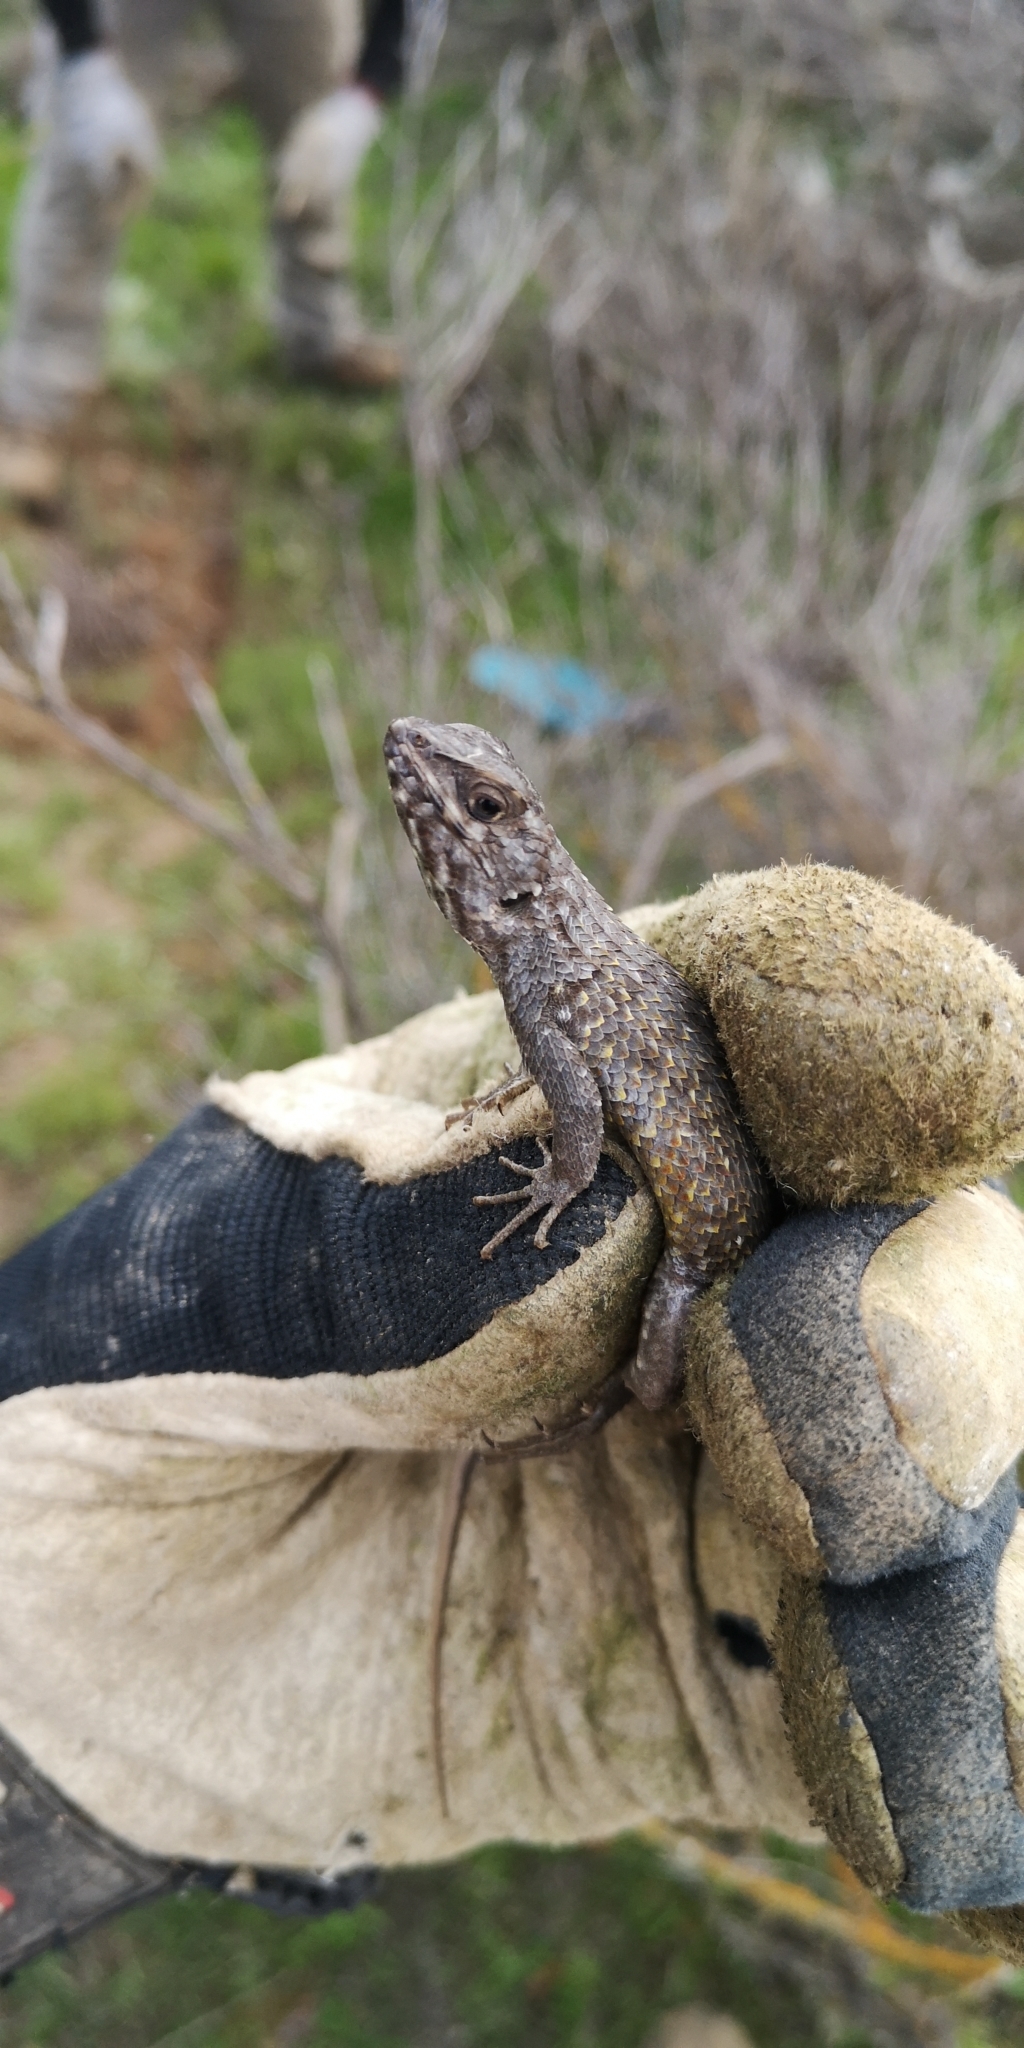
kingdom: Animalia
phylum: Chordata
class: Squamata
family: Liolaemidae
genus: Liolaemus
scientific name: Liolaemus nitidus
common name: Shining tree iguana
